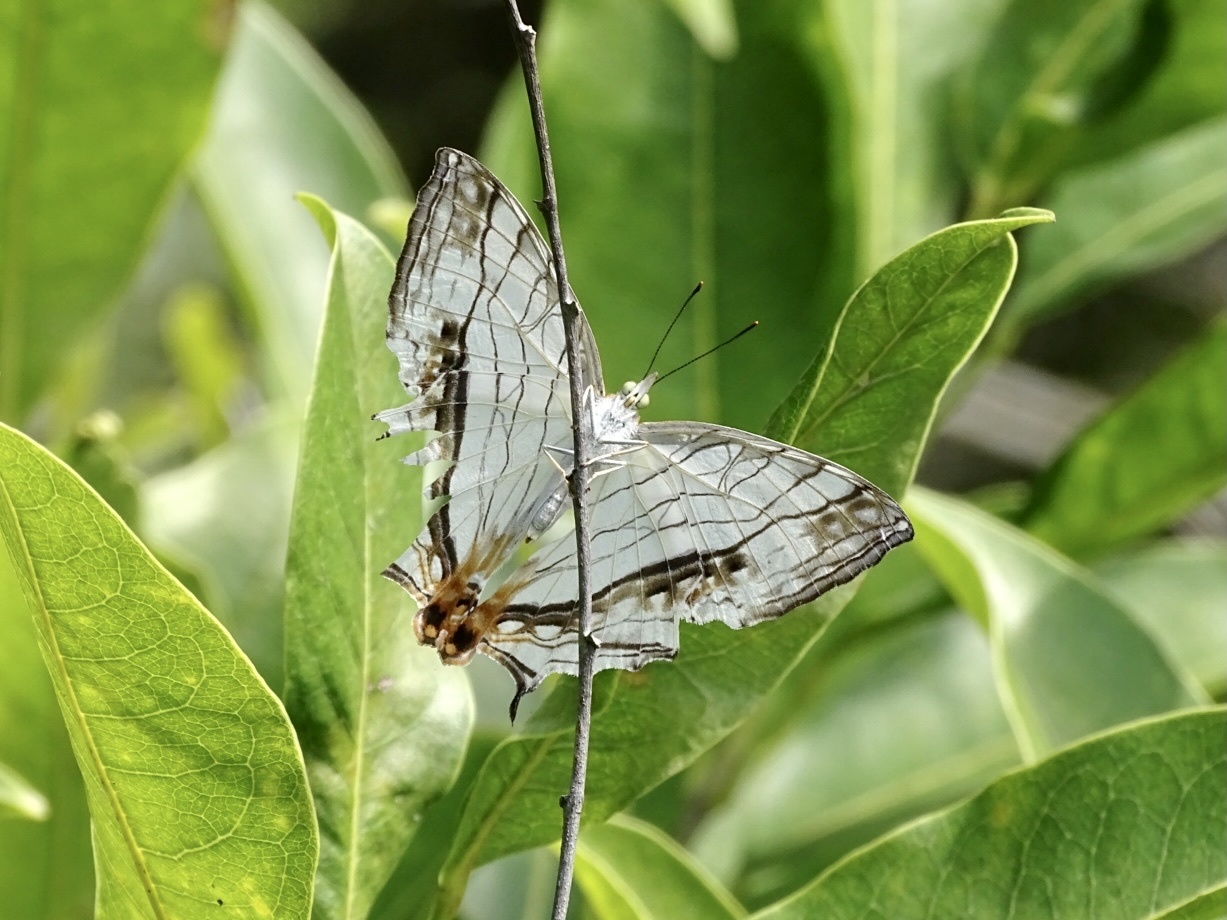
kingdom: Animalia
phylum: Arthropoda
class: Insecta
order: Lepidoptera
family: Nymphalidae
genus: Cyrestis
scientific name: Cyrestis thyodamas
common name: Common mapwing
